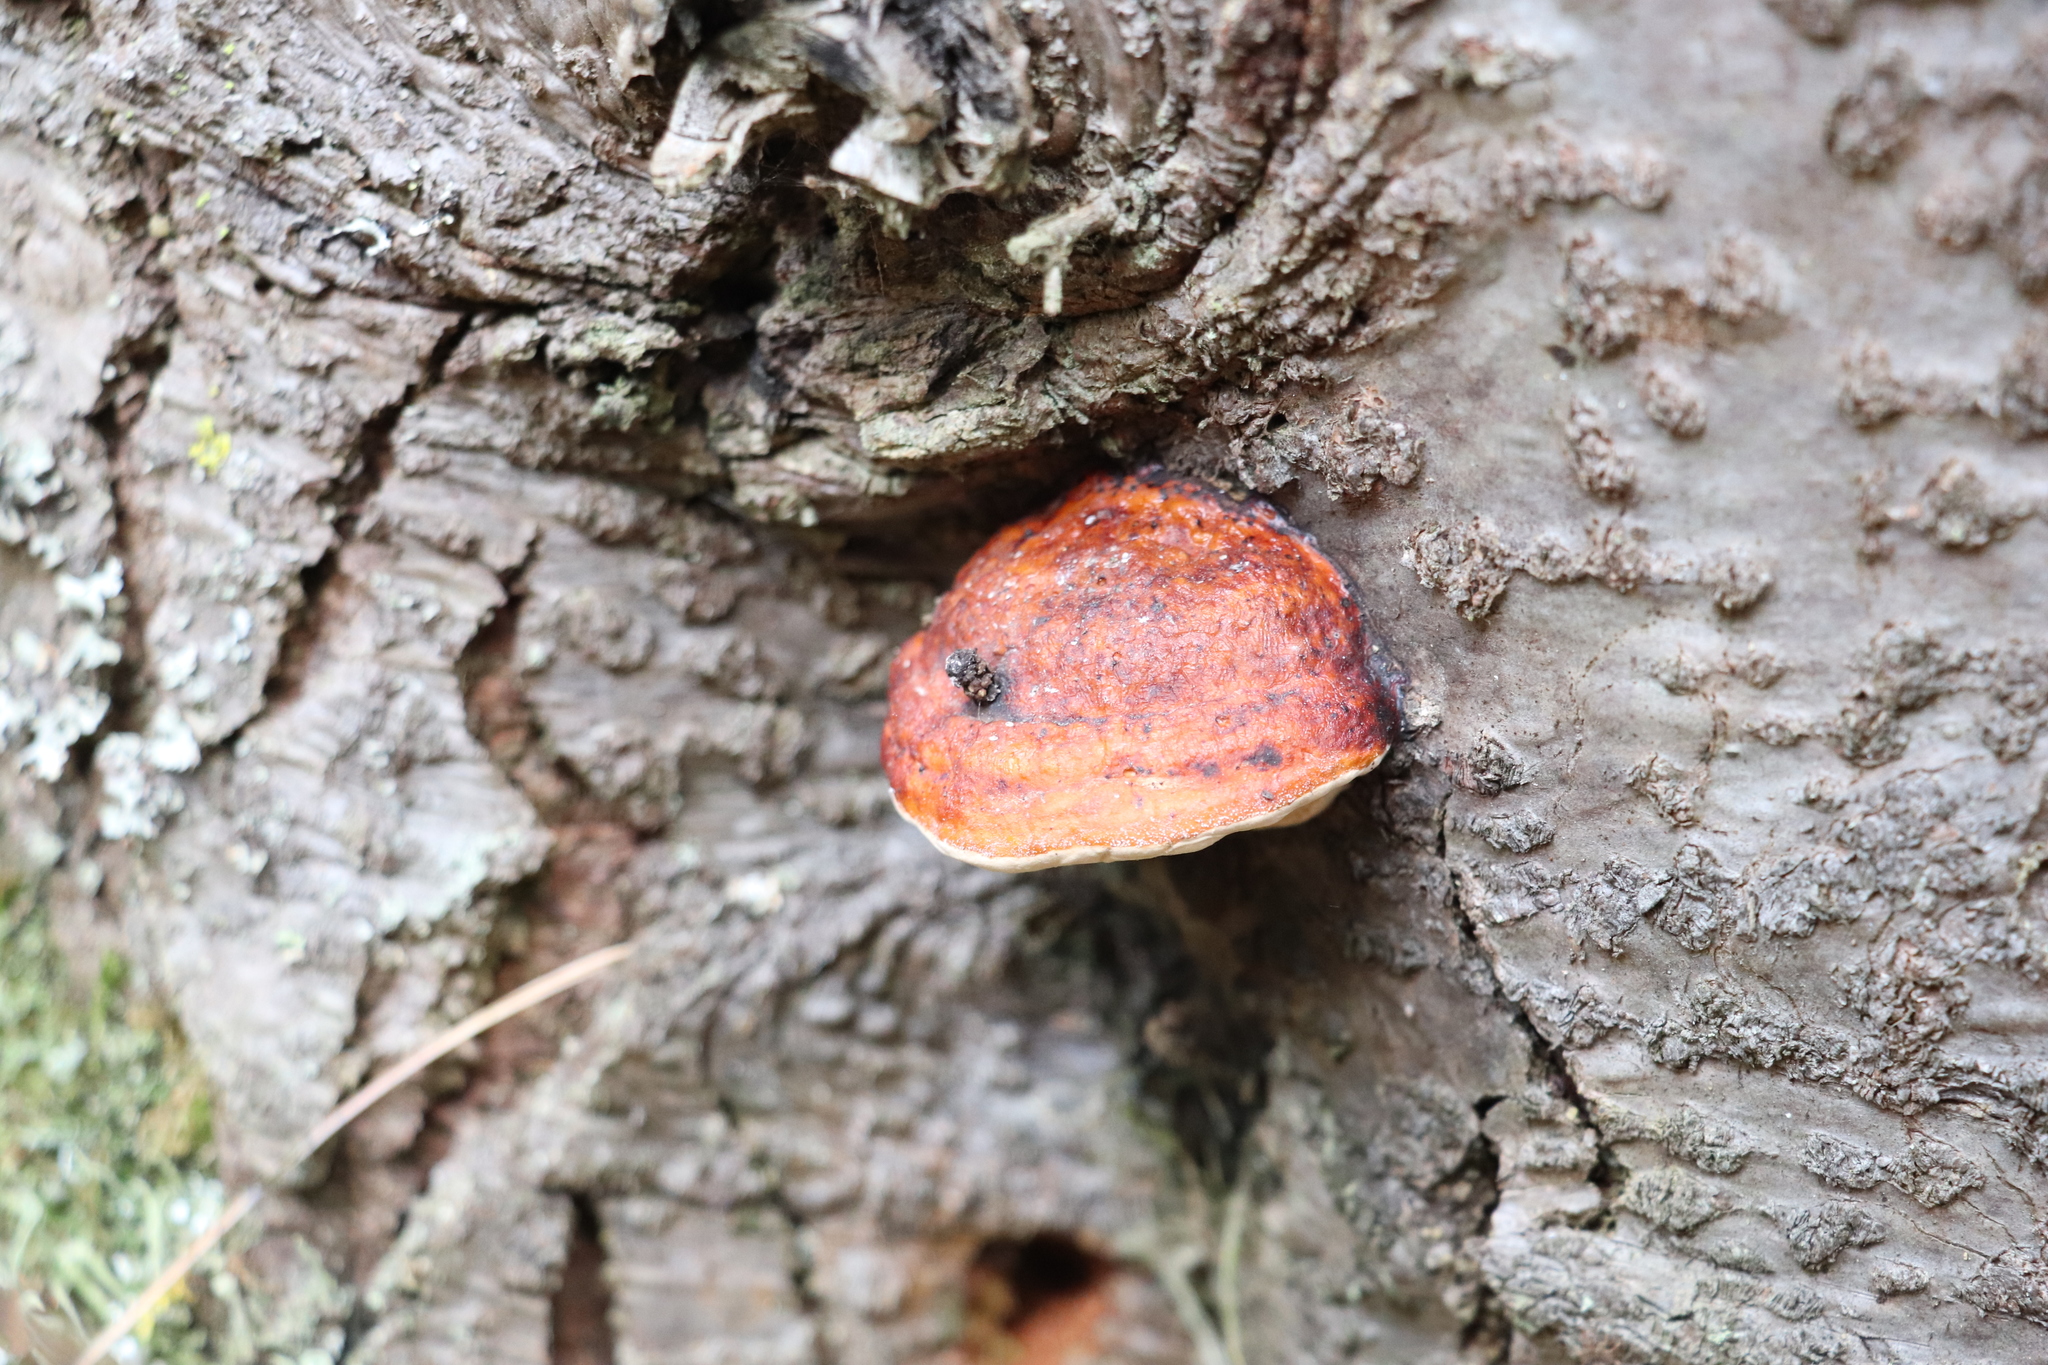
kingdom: Fungi
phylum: Basidiomycota
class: Agaricomycetes
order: Polyporales
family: Fomitopsidaceae
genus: Fomitopsis
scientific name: Fomitopsis pinicola
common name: Red-belted bracket
